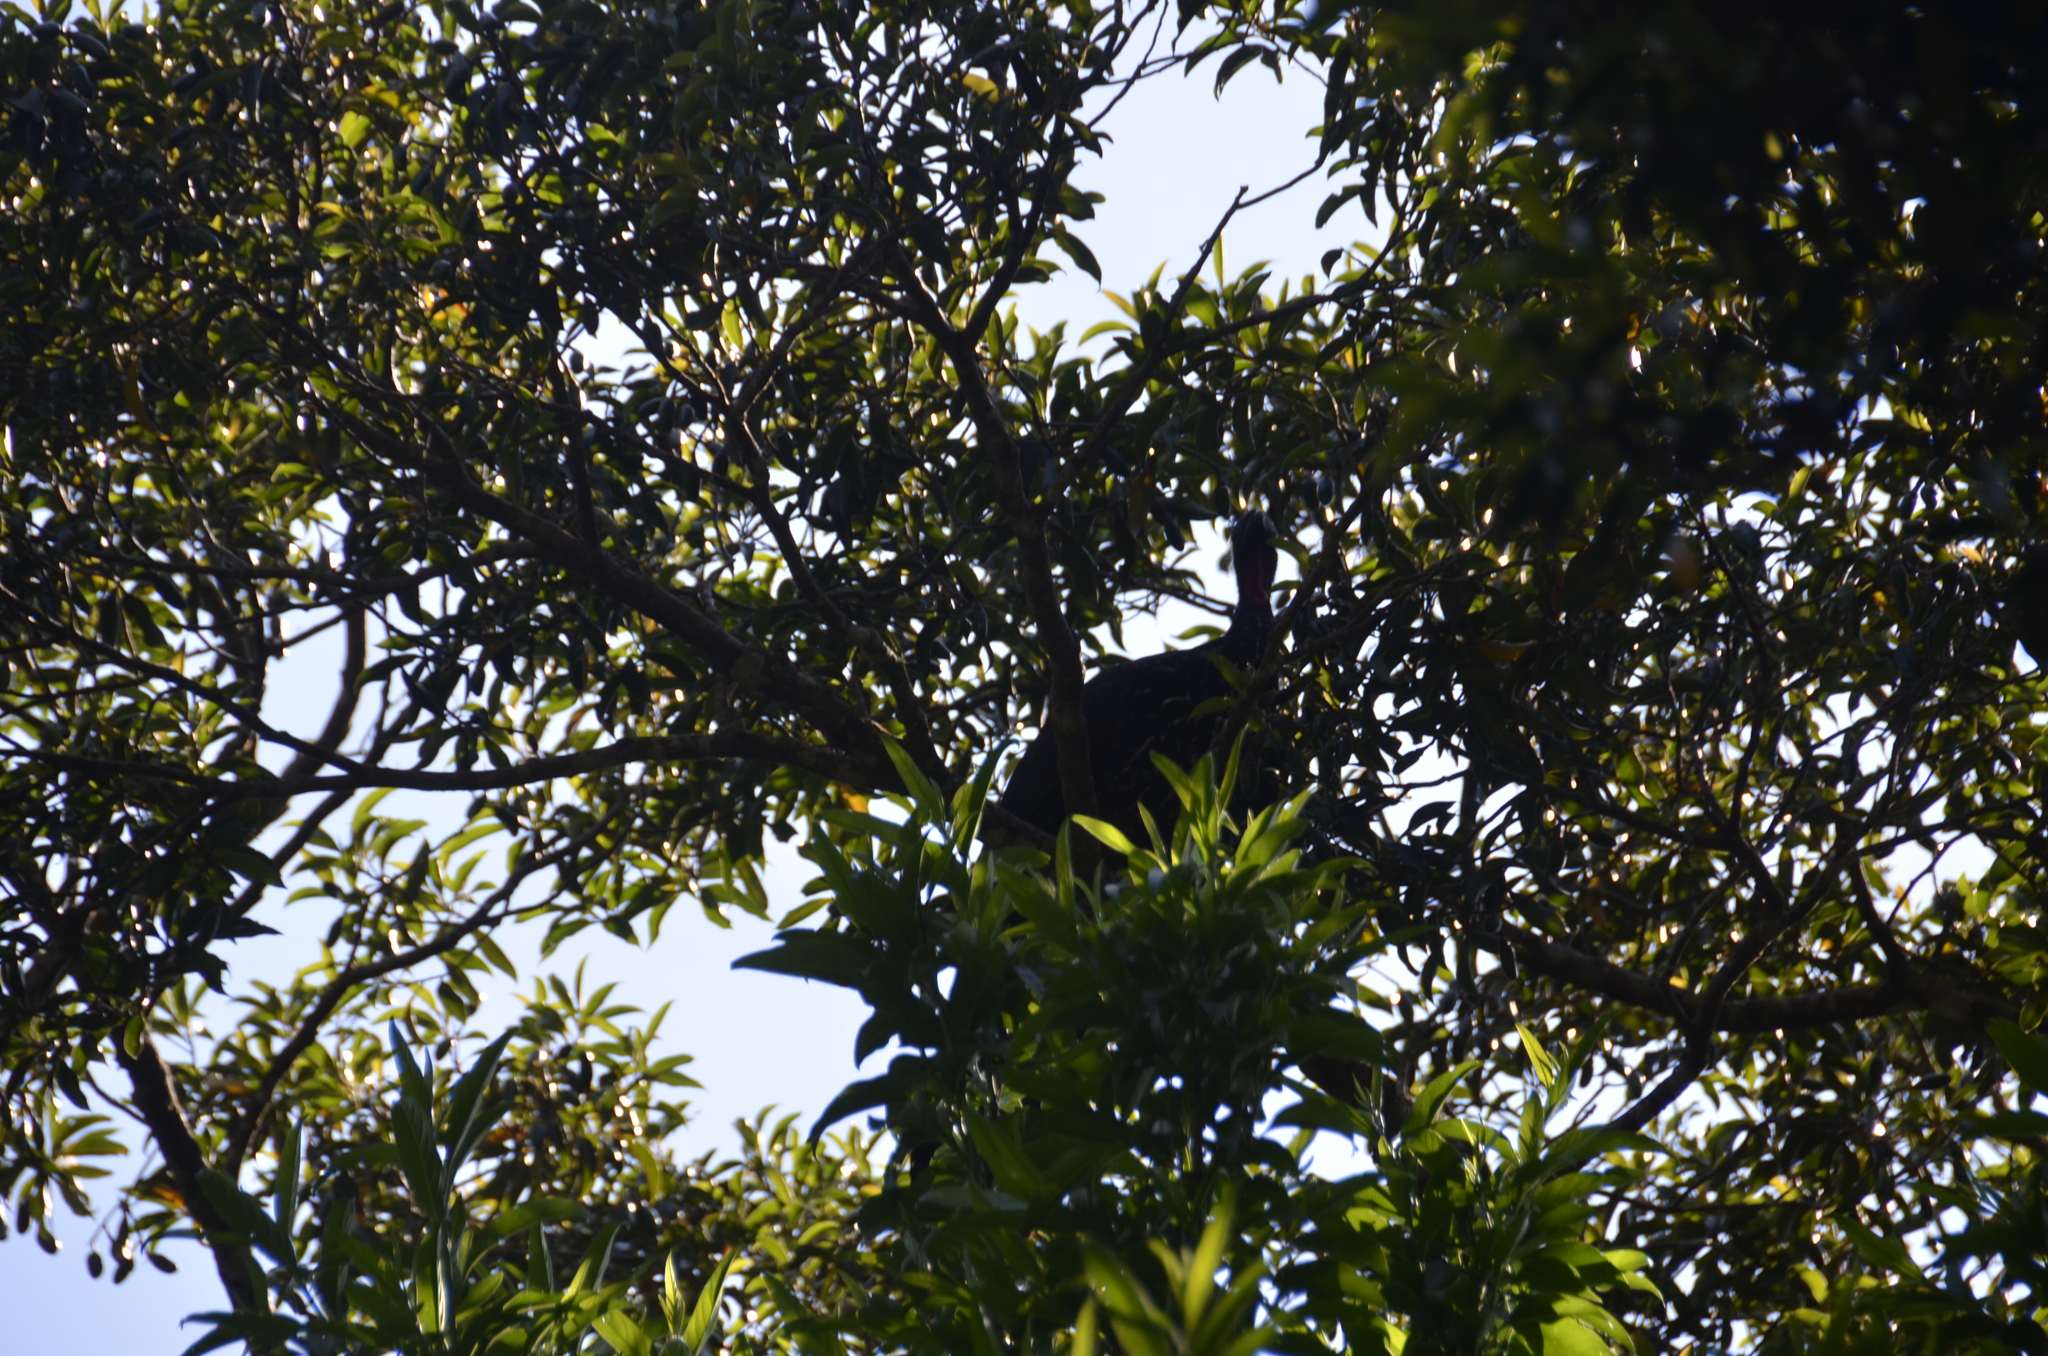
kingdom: Animalia
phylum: Chordata
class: Aves
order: Galliformes
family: Cracidae
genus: Penelope
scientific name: Penelope purpurascens
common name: Crested guan
